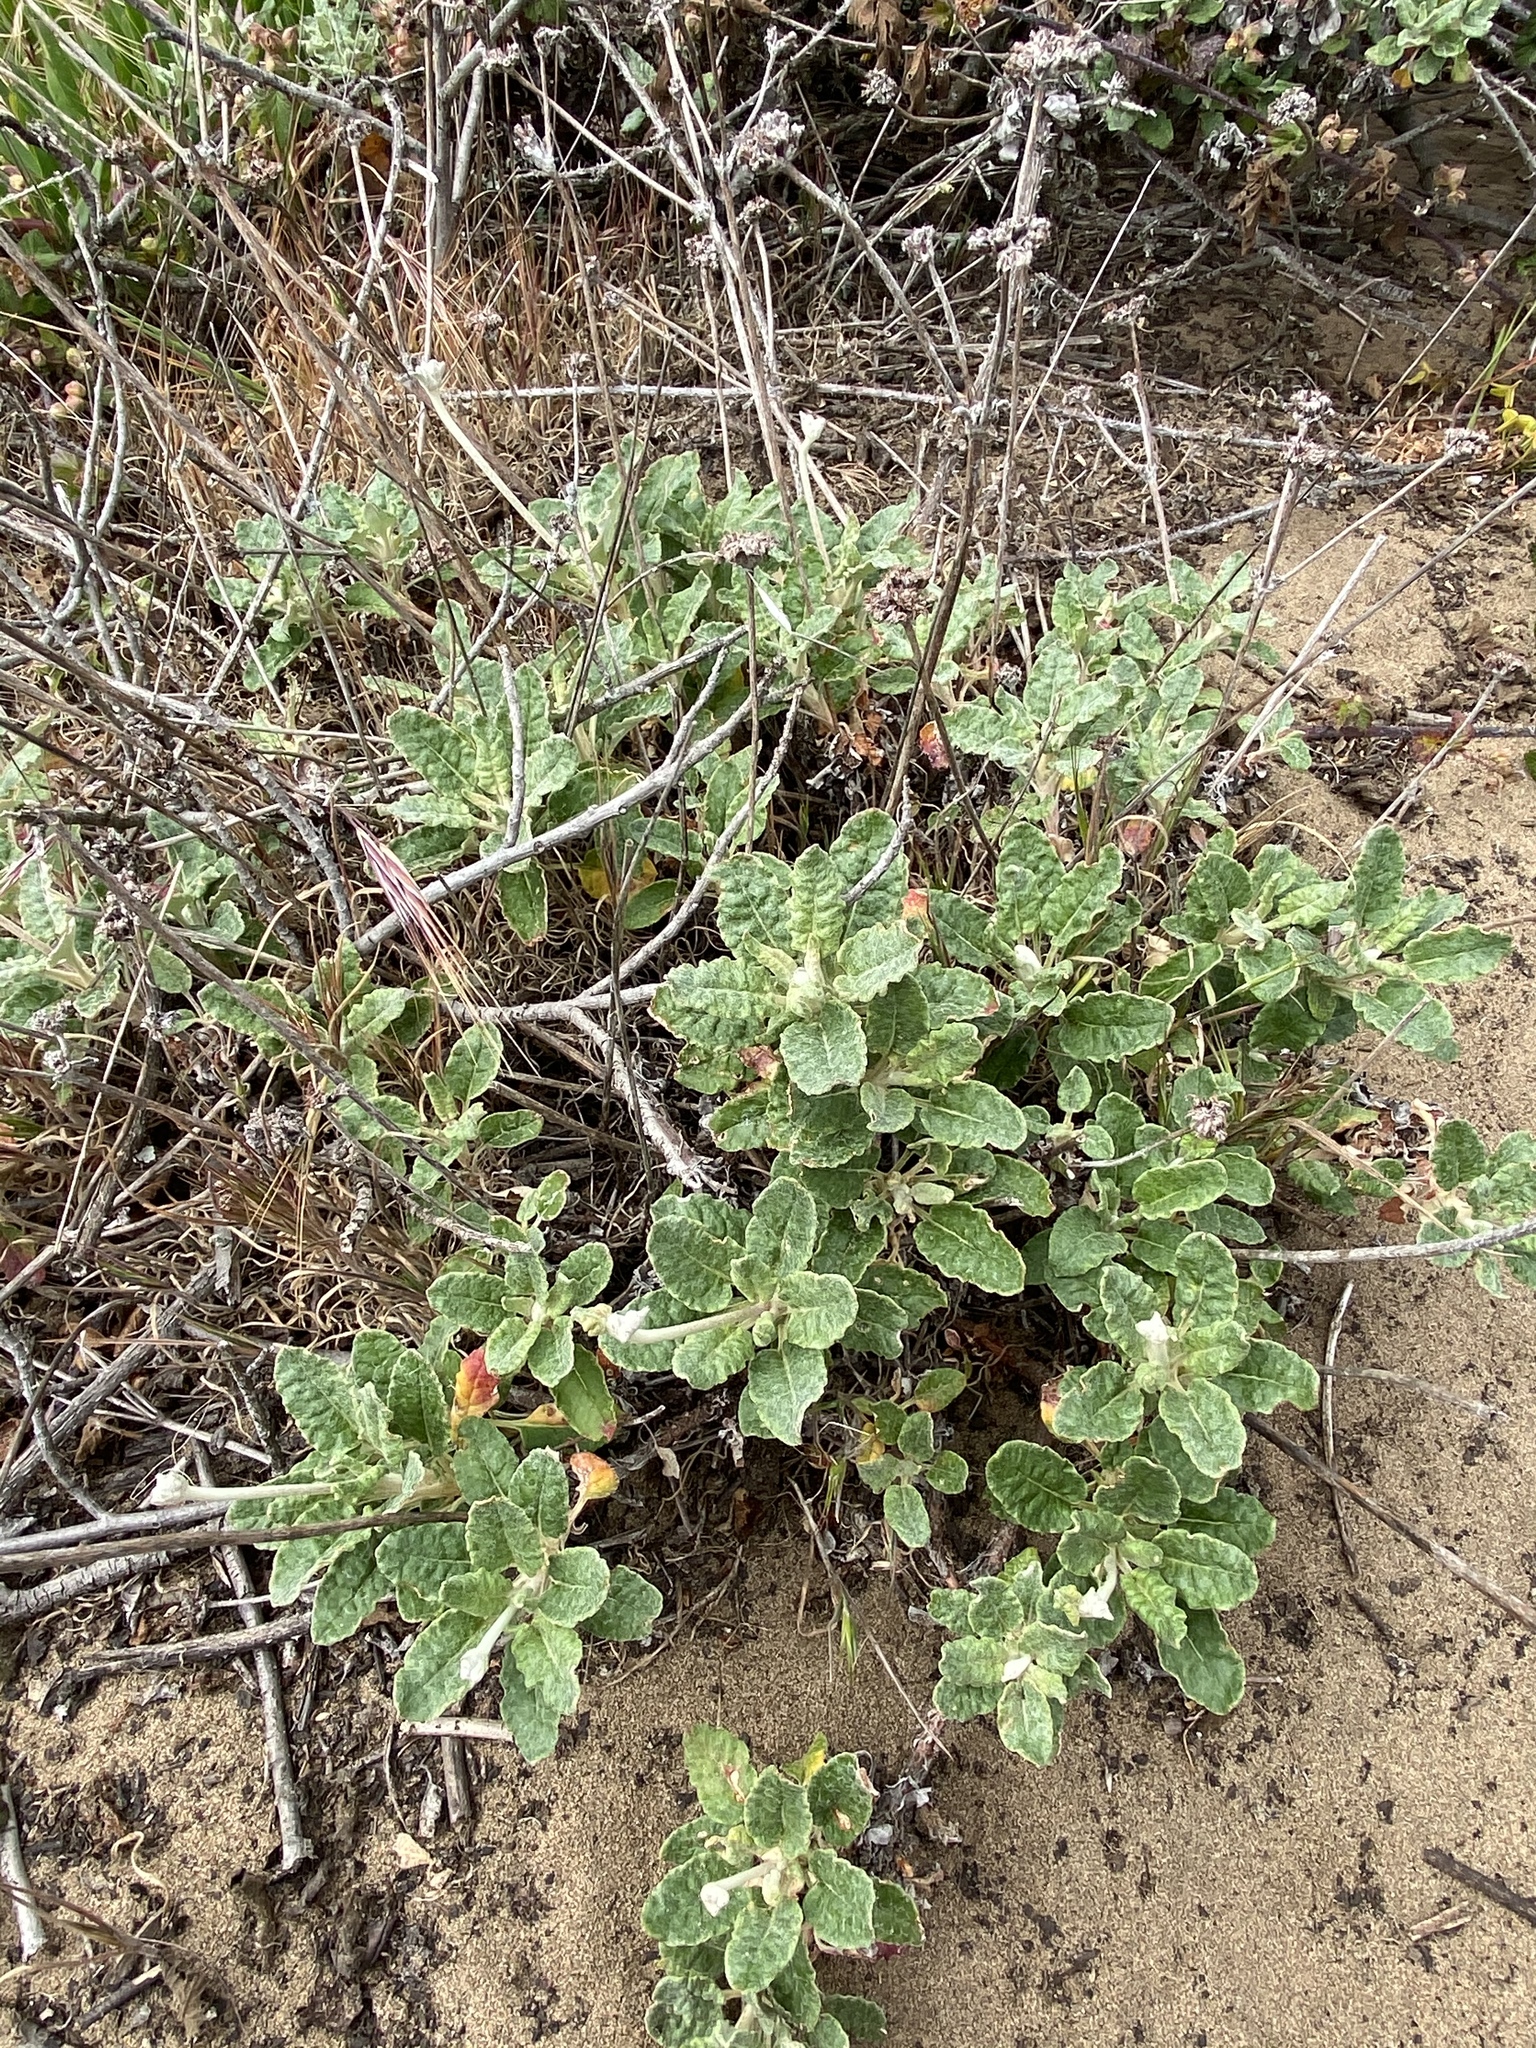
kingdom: Plantae
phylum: Tracheophyta
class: Magnoliopsida
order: Caryophyllales
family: Polygonaceae
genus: Eriogonum
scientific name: Eriogonum latifolium
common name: Seaside wild buckwheat
